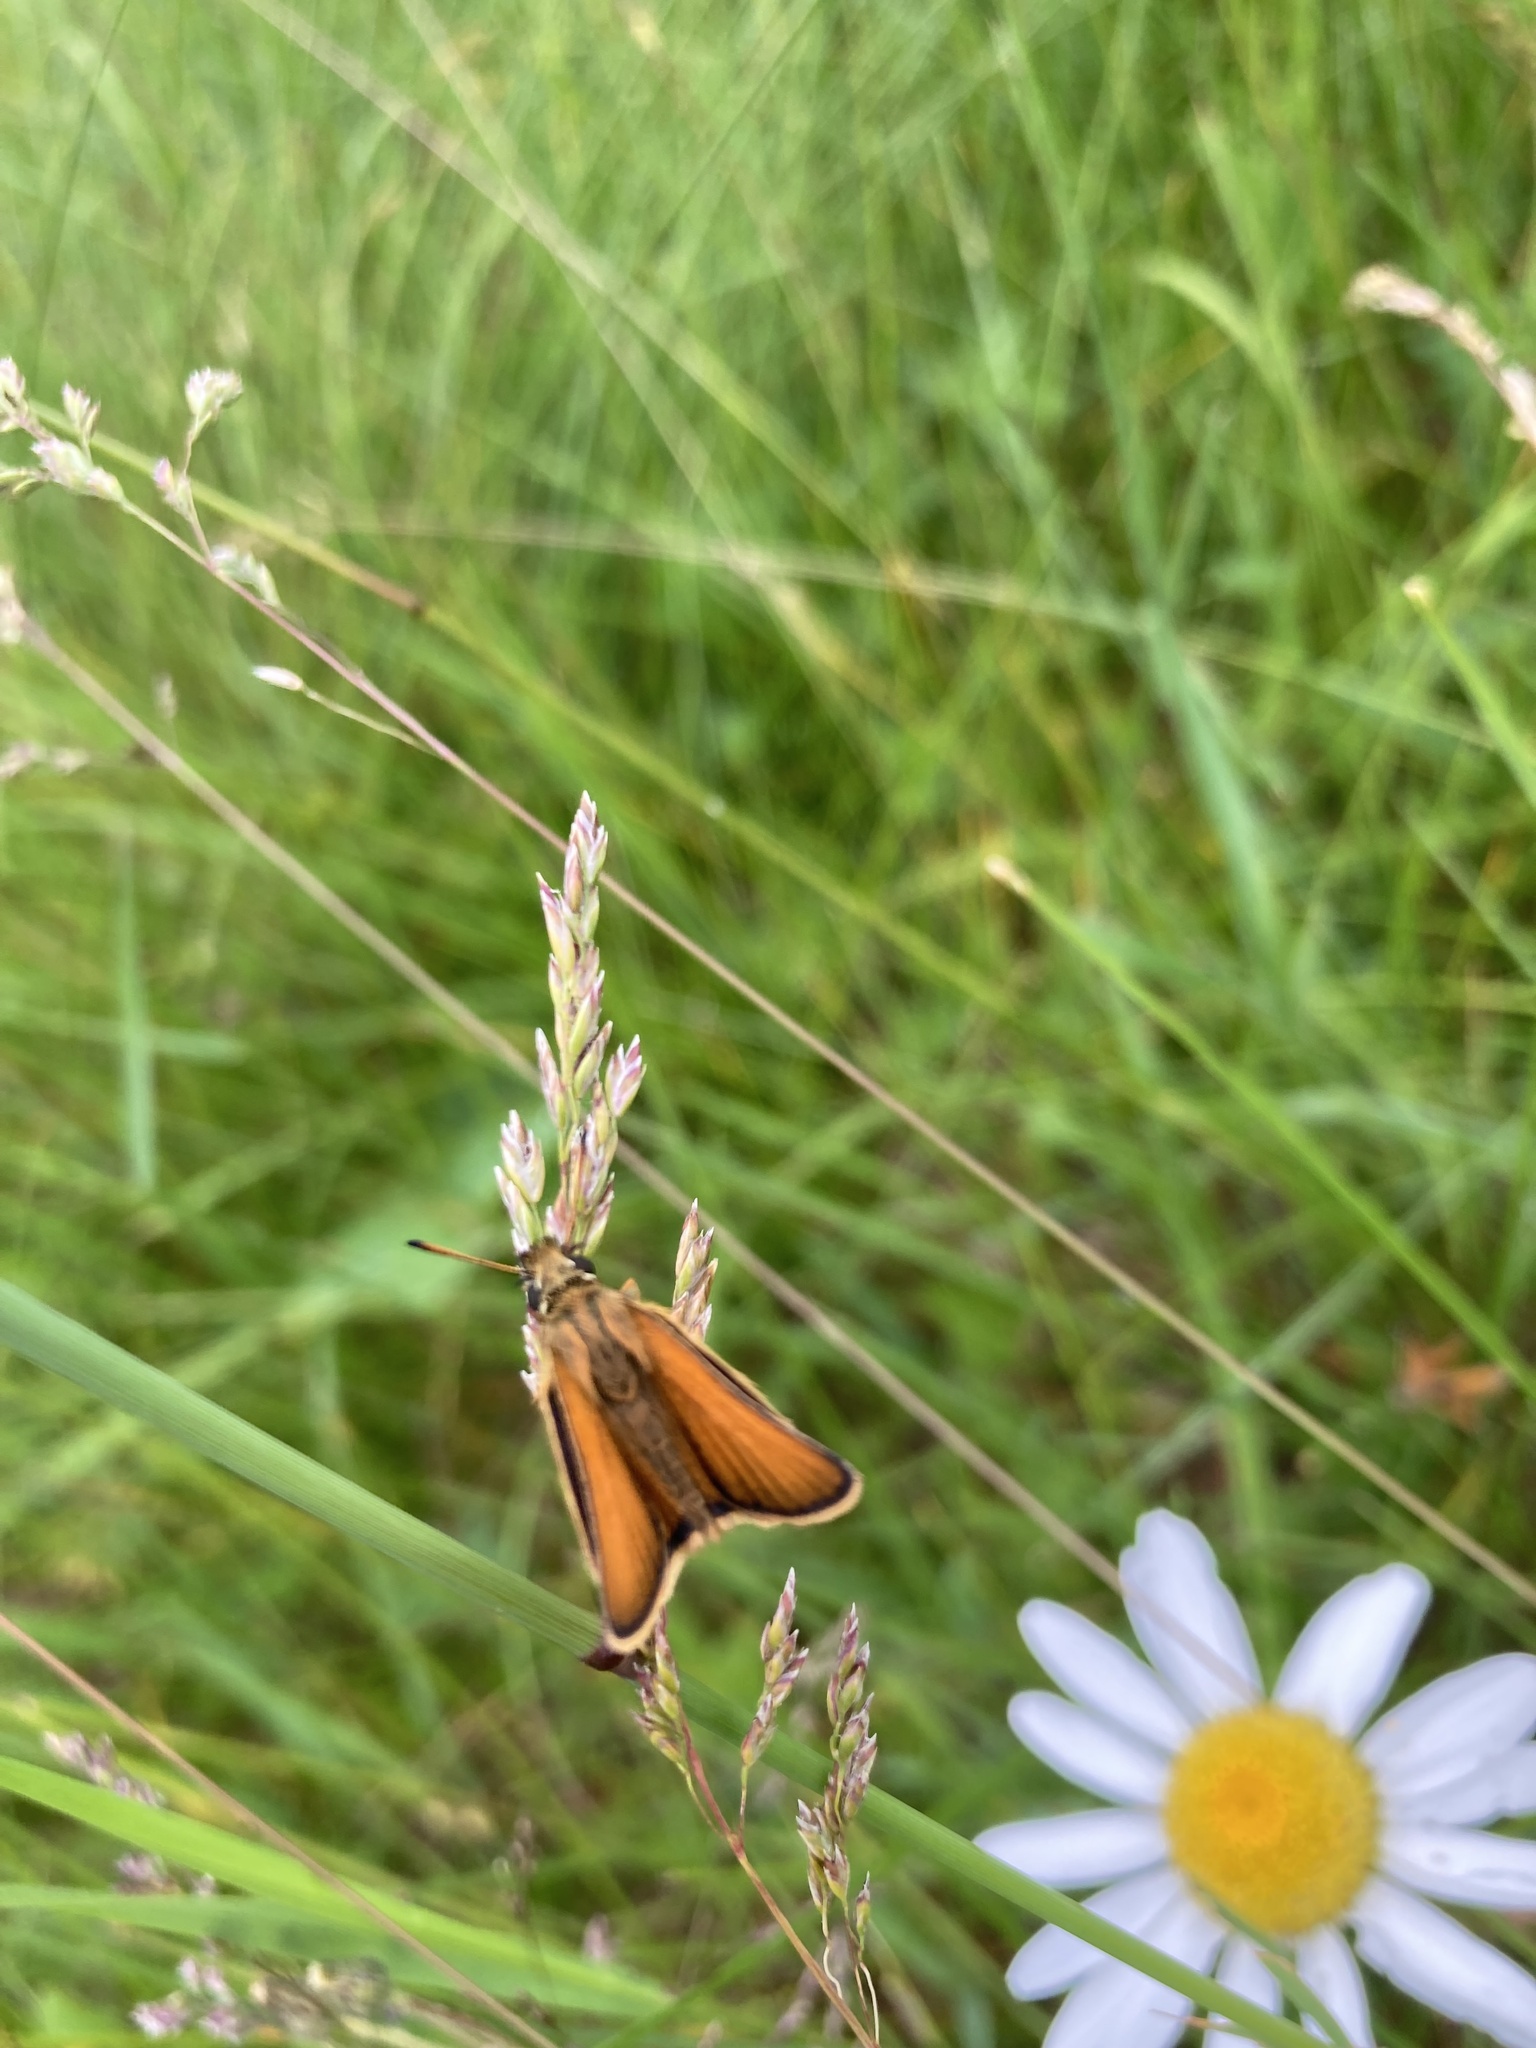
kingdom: Animalia
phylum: Arthropoda
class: Insecta
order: Lepidoptera
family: Hesperiidae
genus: Thymelicus
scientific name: Thymelicus lineola
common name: Essex skipper
